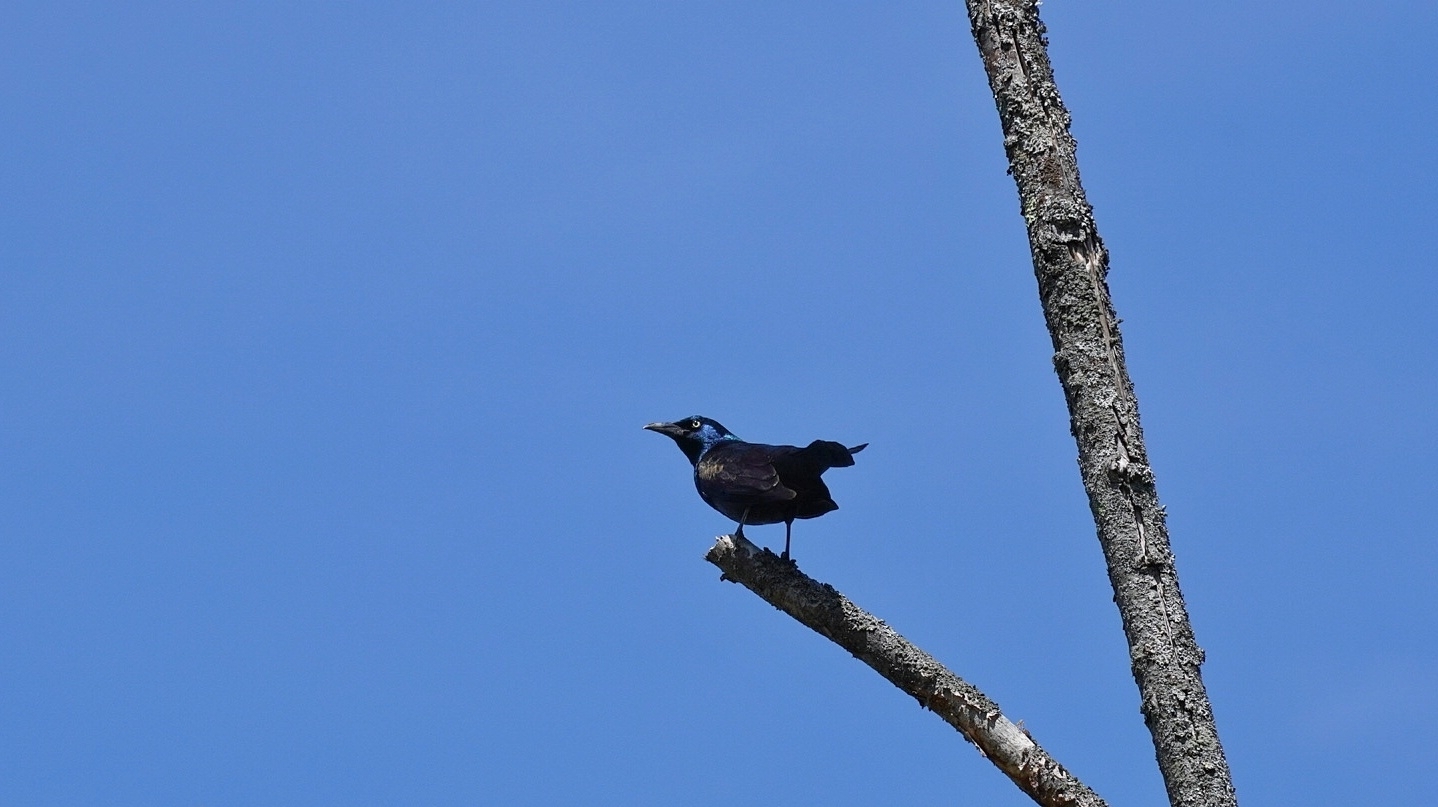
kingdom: Animalia
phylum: Chordata
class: Aves
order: Passeriformes
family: Icteridae
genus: Quiscalus
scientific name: Quiscalus quiscula
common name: Common grackle
